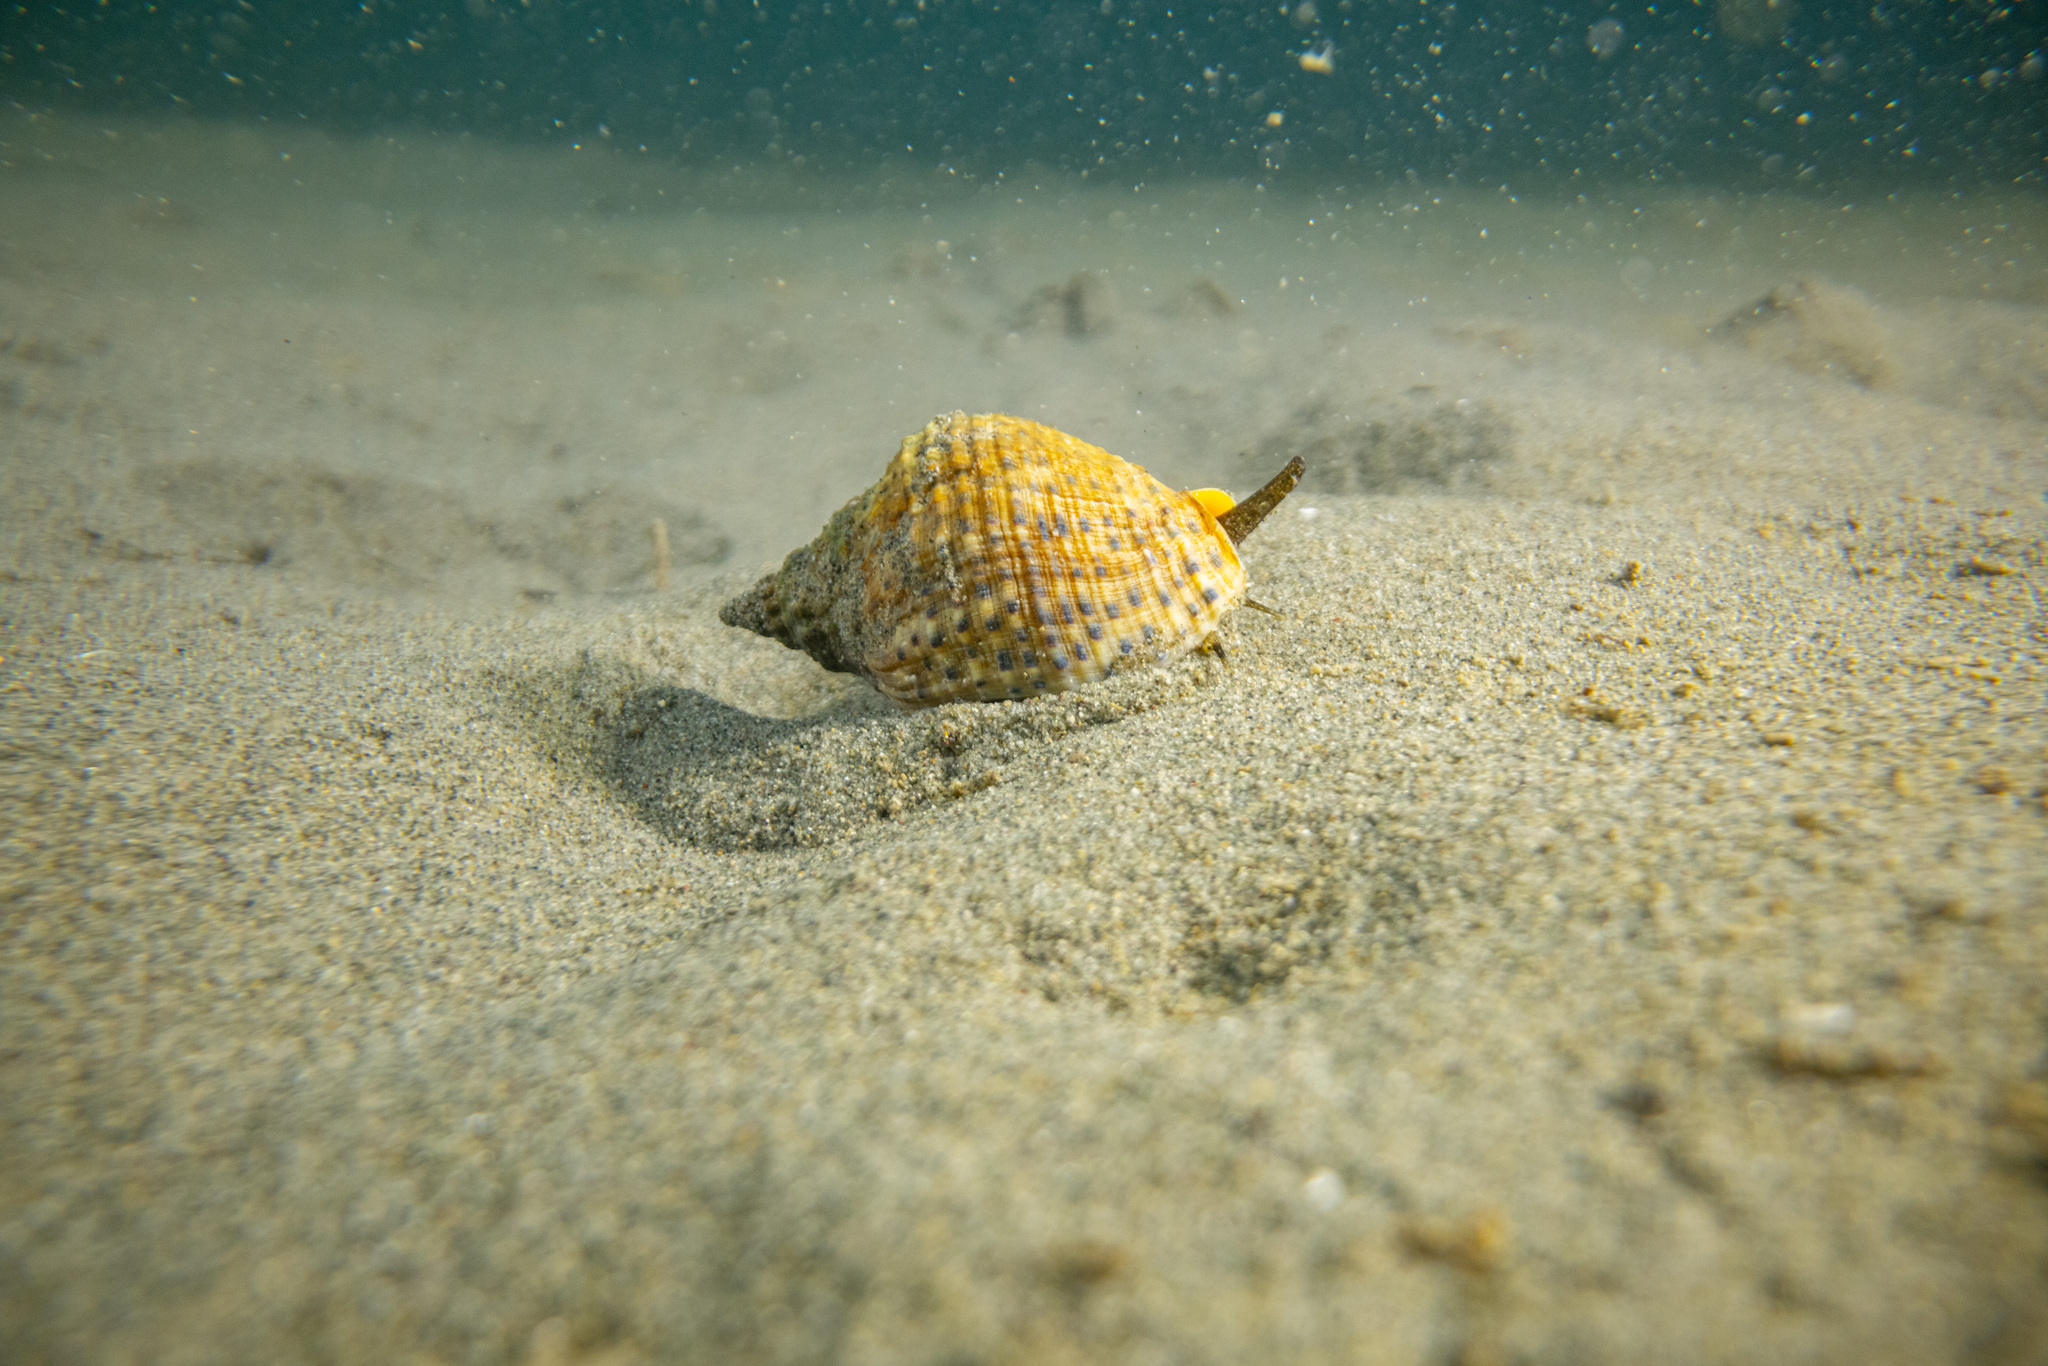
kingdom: Animalia
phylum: Mollusca
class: Gastropoda
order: Neogastropoda
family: Cominellidae
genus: Cominella
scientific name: Cominella adspersa
